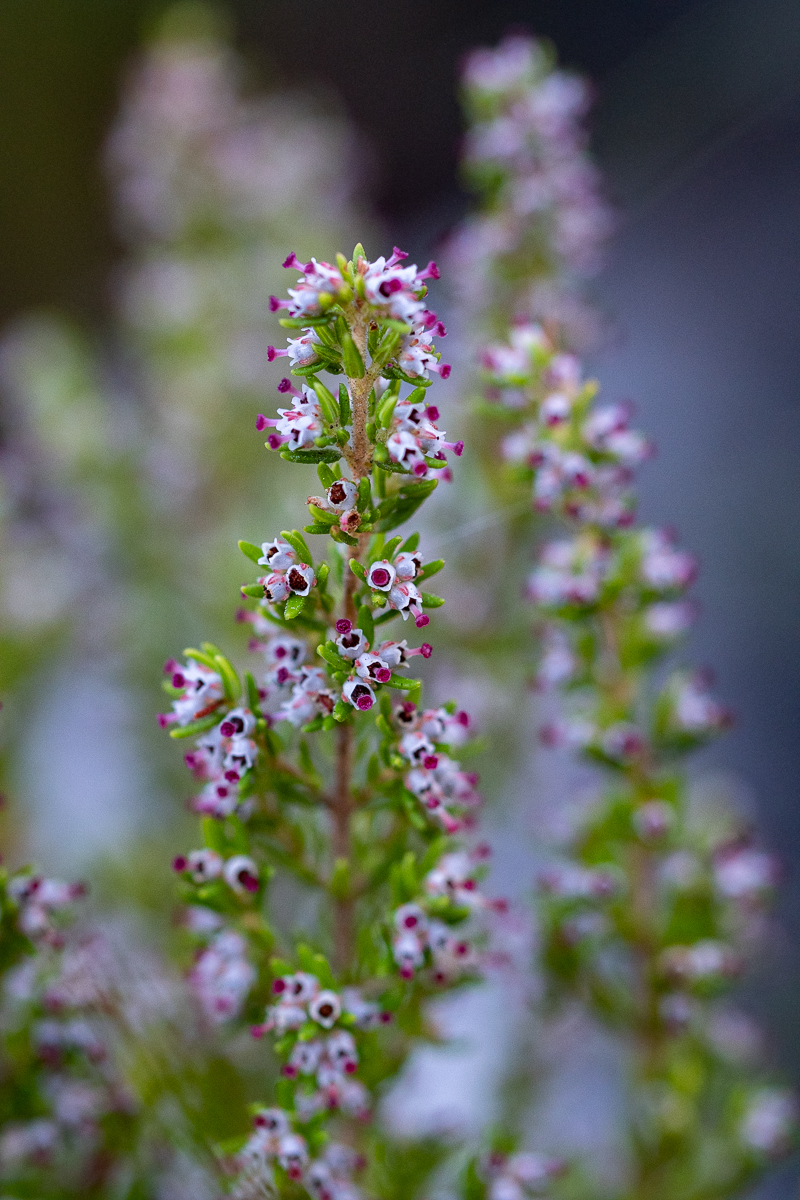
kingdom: Plantae
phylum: Tracheophyta
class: Magnoliopsida
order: Ericales
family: Ericaceae
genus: Erica
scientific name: Erica hispidula
